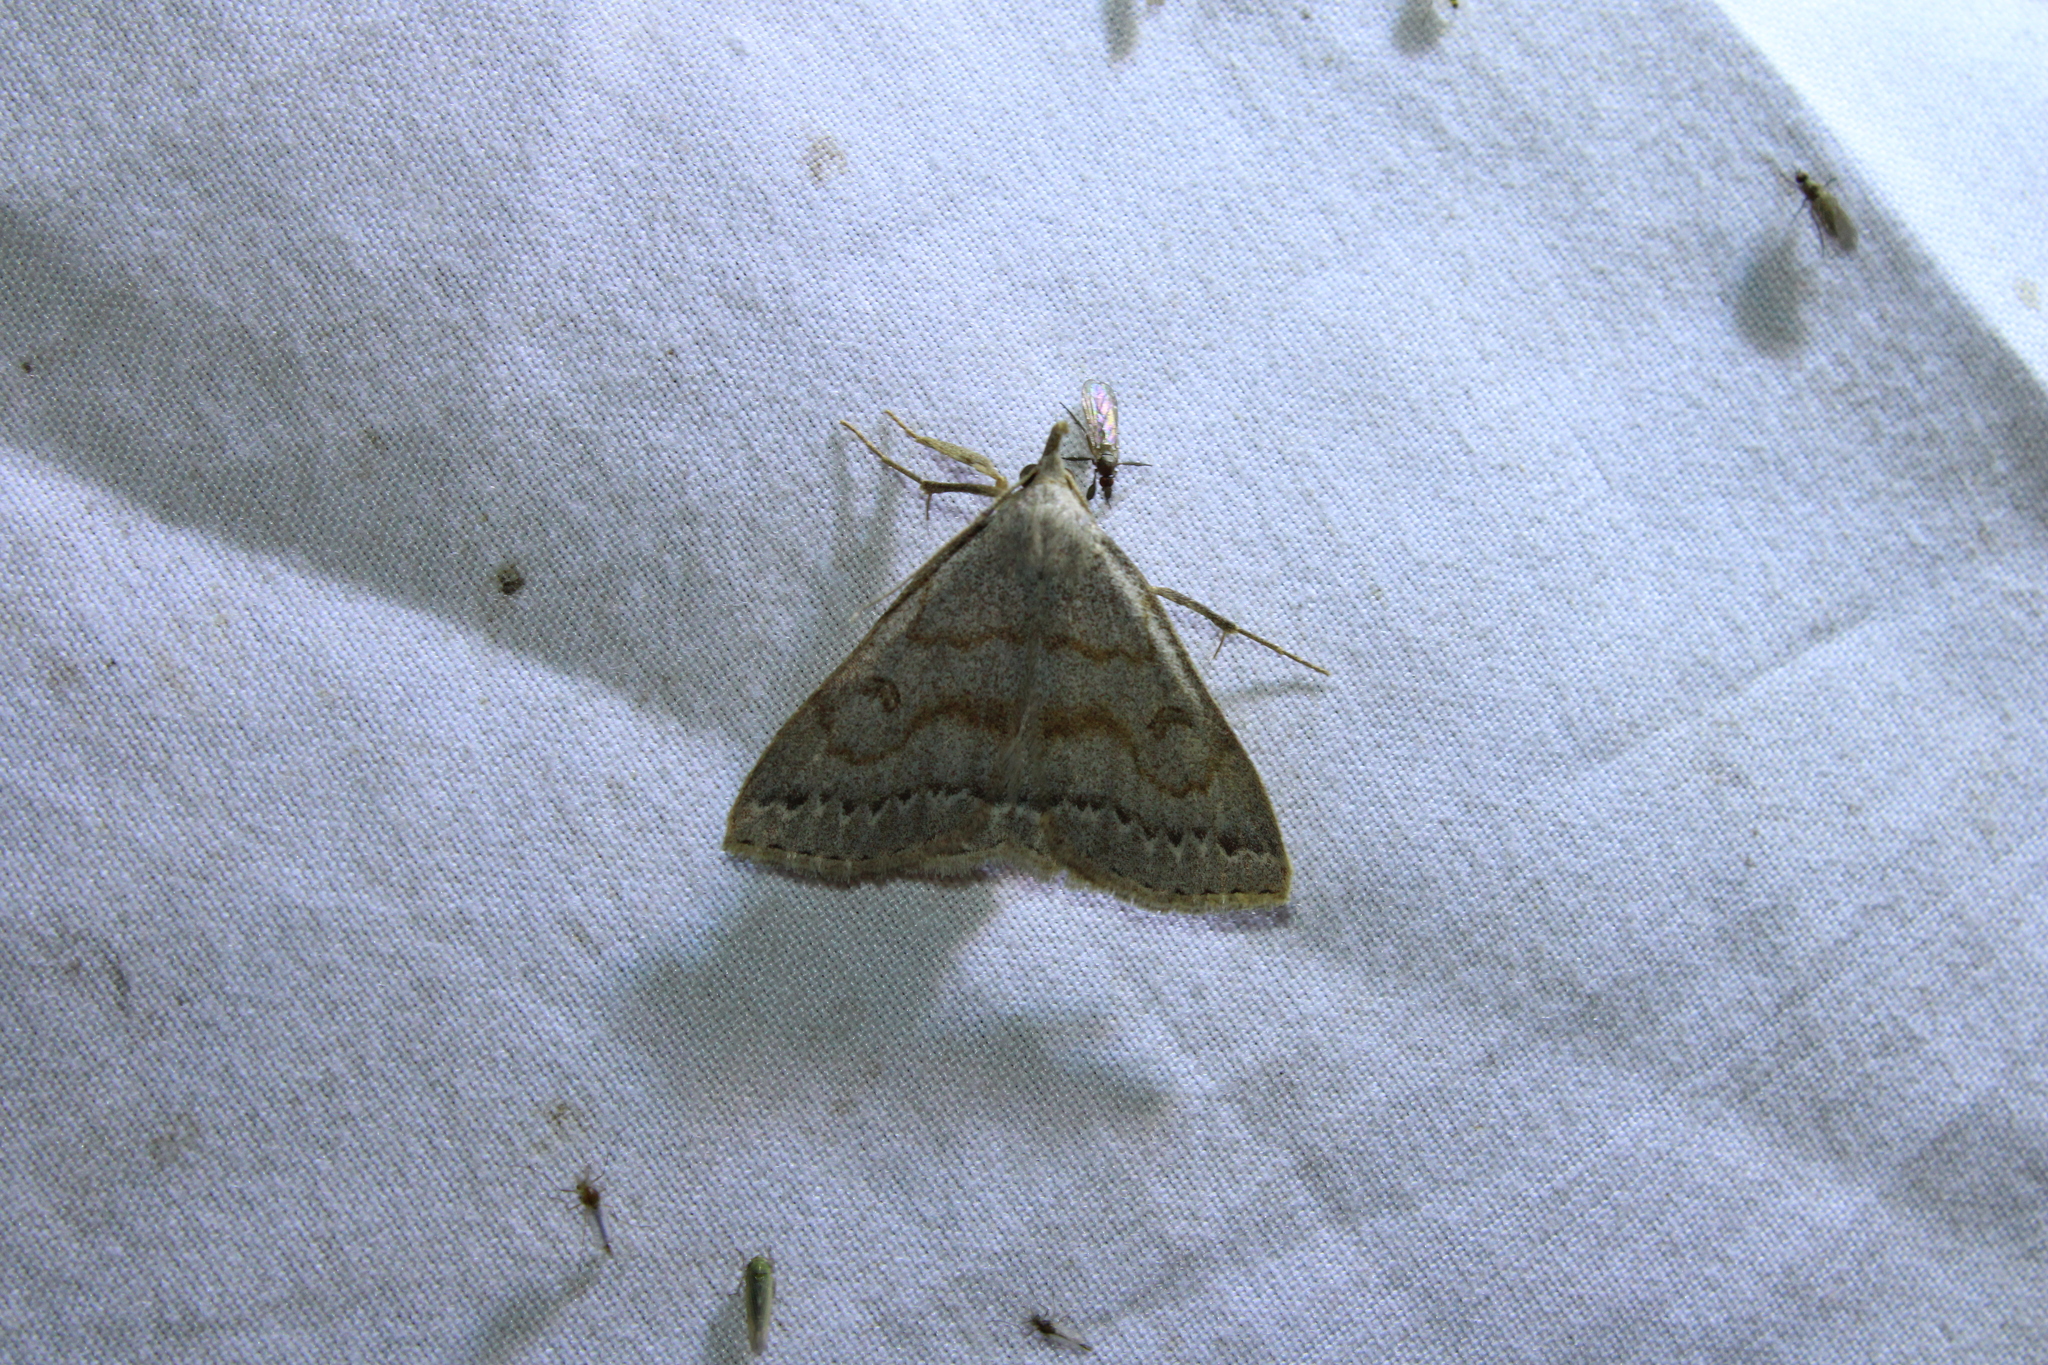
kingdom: Animalia
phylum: Arthropoda
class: Insecta
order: Lepidoptera
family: Erebidae
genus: Macrochilo
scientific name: Macrochilo morbidalis
